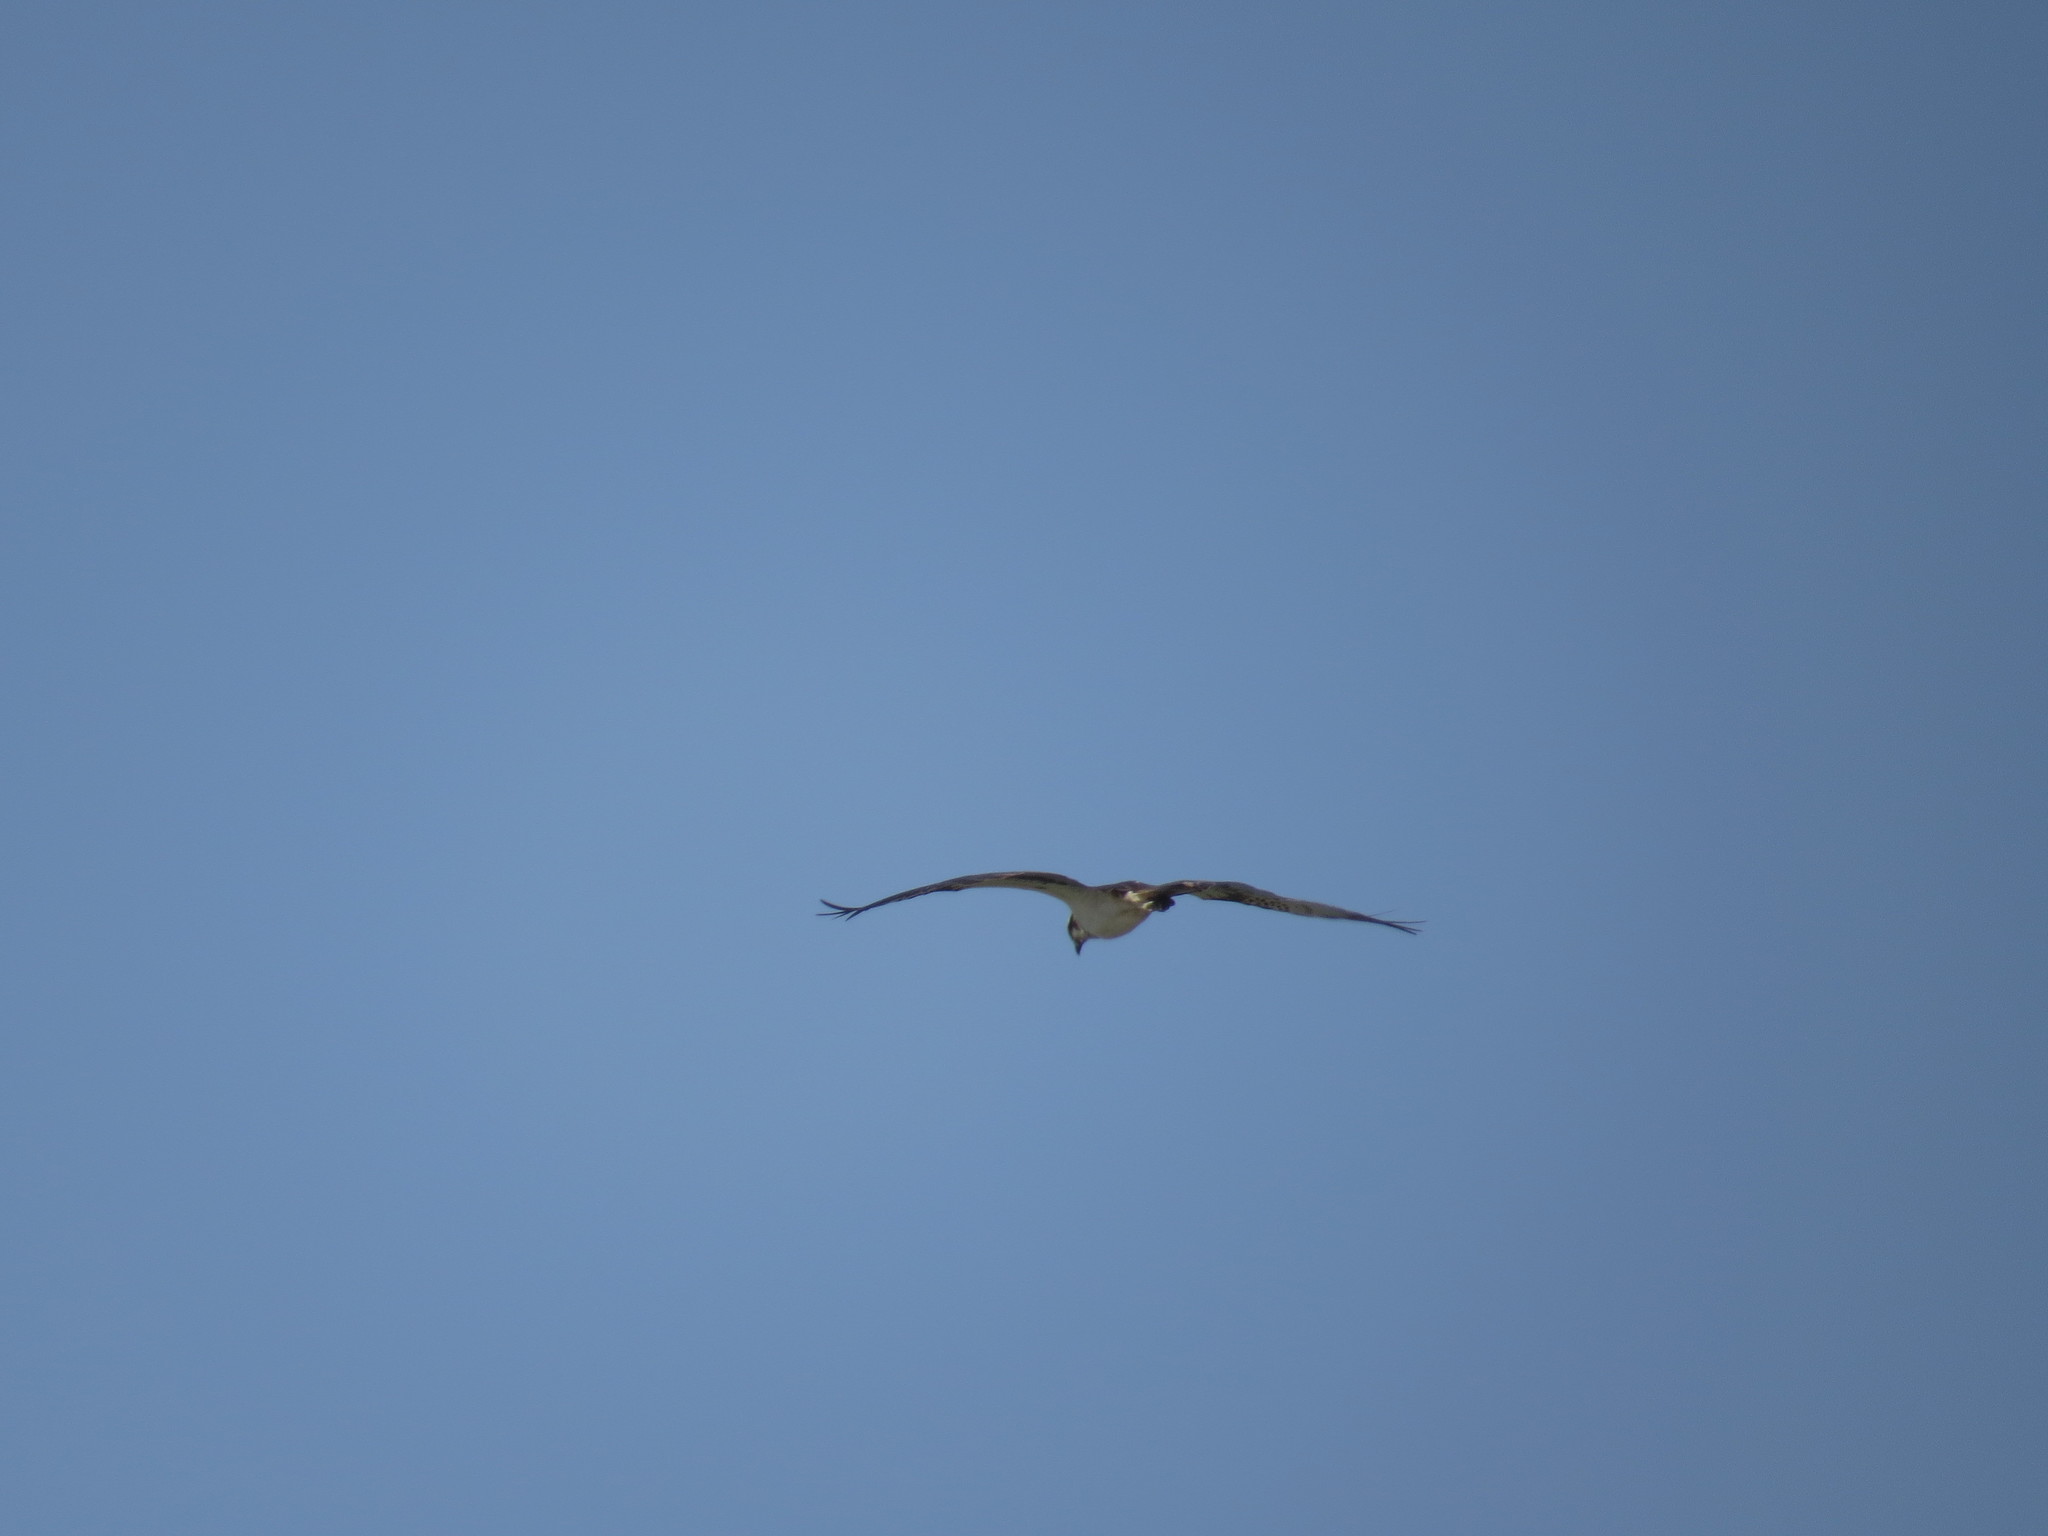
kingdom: Animalia
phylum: Chordata
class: Aves
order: Accipitriformes
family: Pandionidae
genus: Pandion
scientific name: Pandion haliaetus
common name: Osprey
